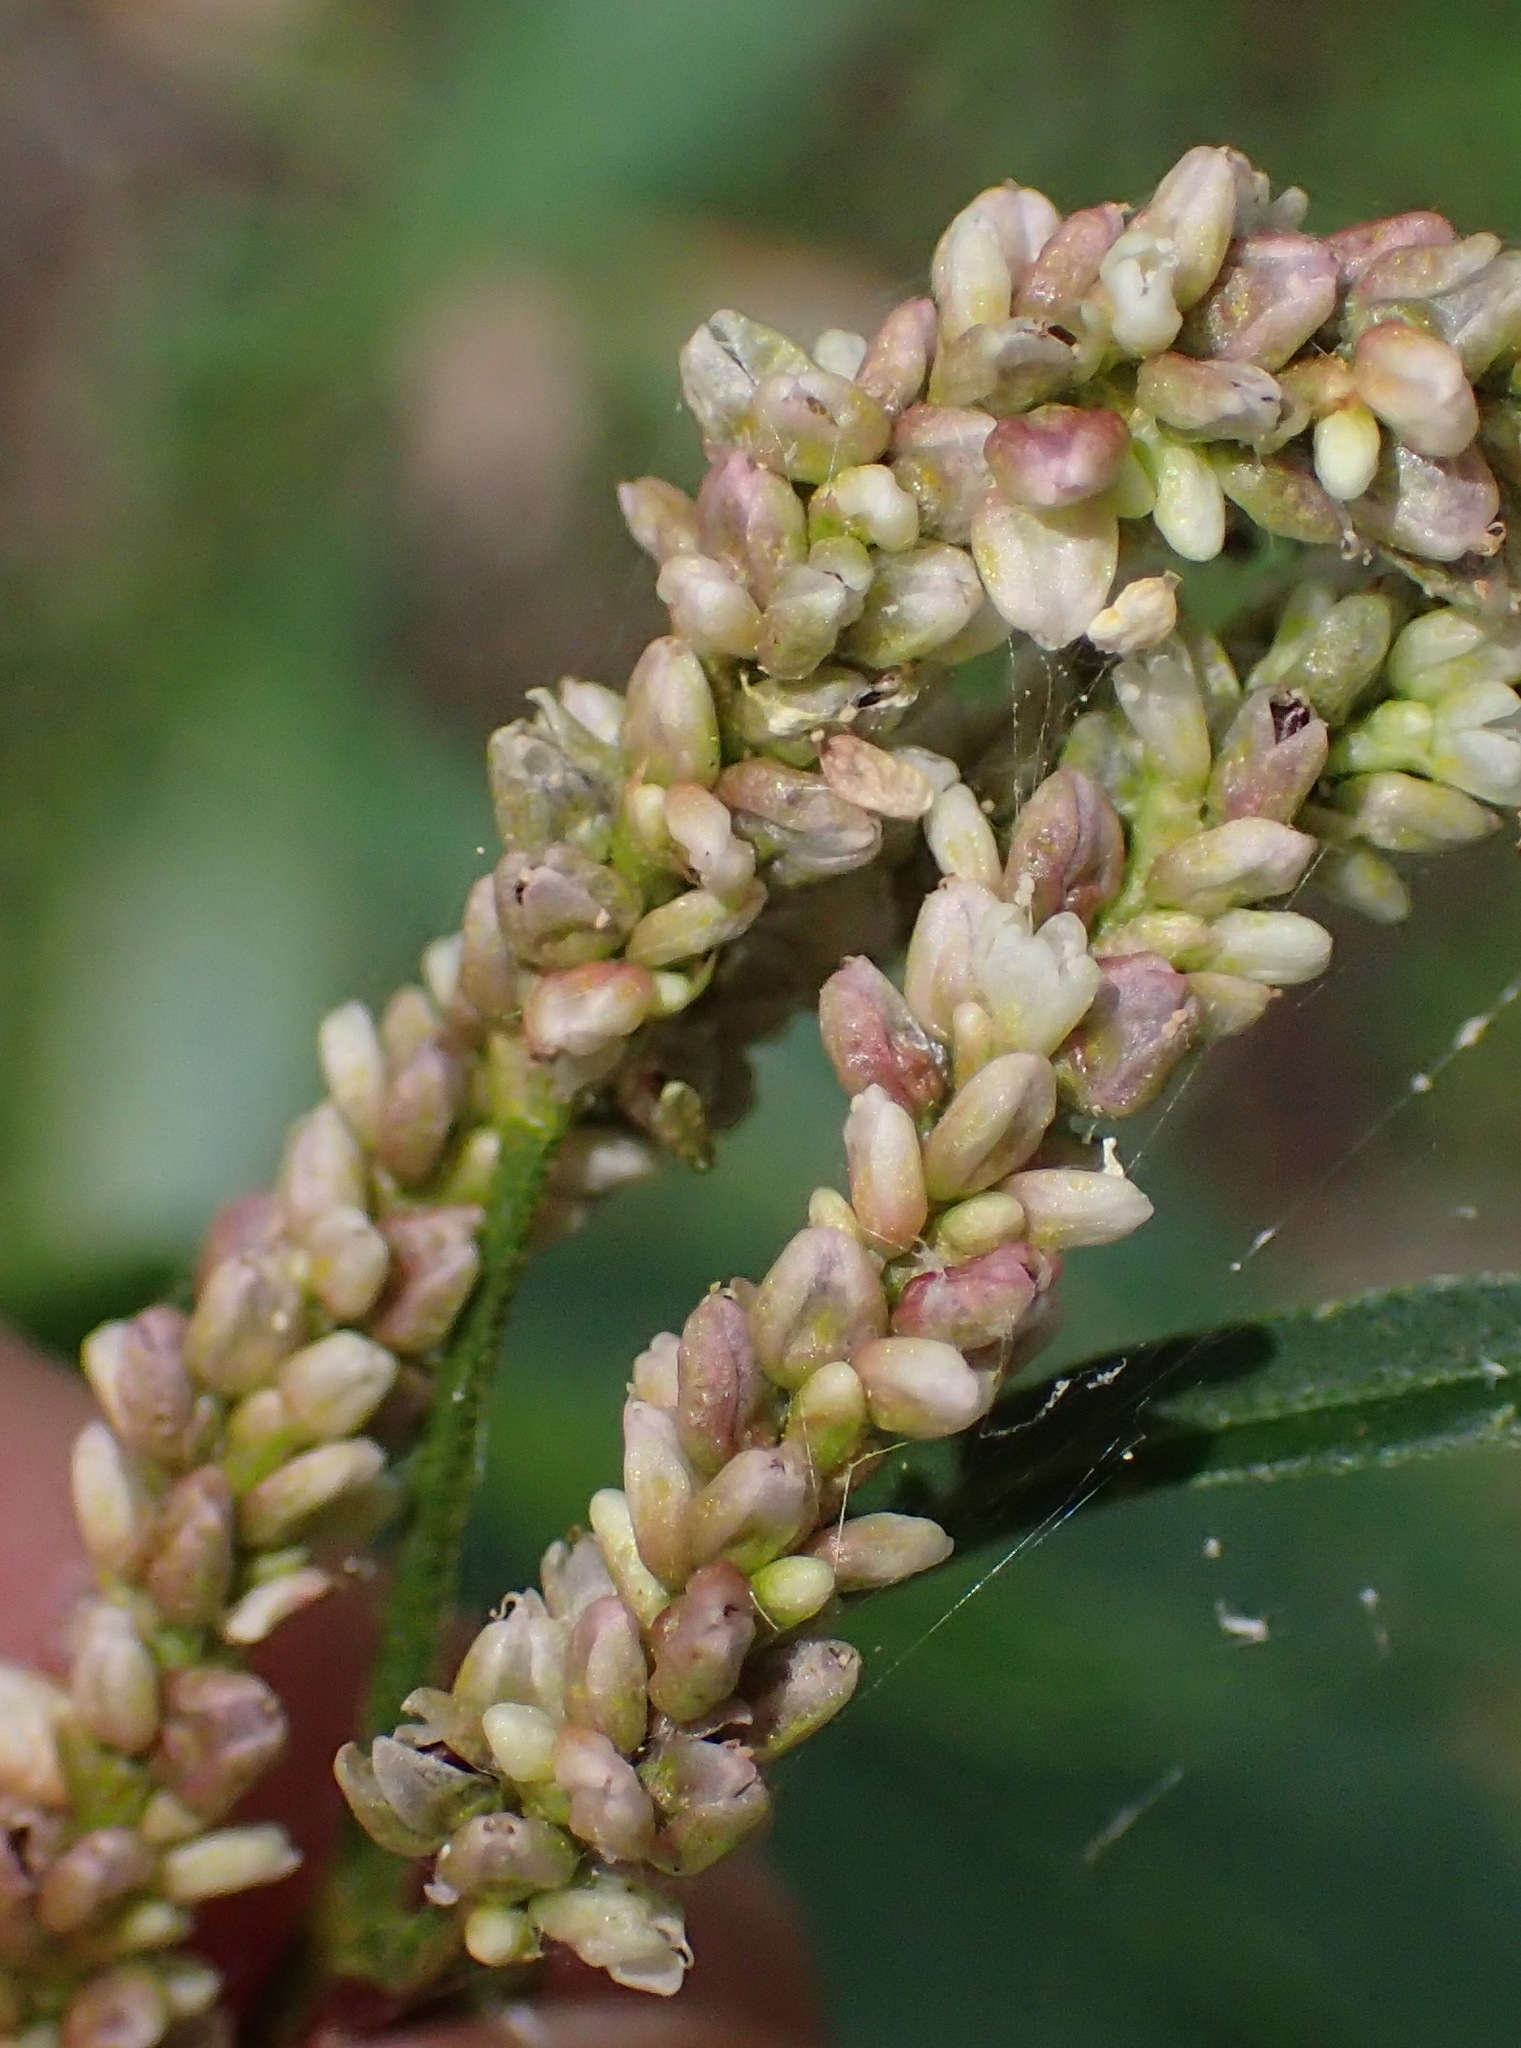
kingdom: Plantae
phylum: Tracheophyta
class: Magnoliopsida
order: Caryophyllales
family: Polygonaceae
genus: Persicaria
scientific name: Persicaria lapathifolia
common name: Curlytop knotweed
